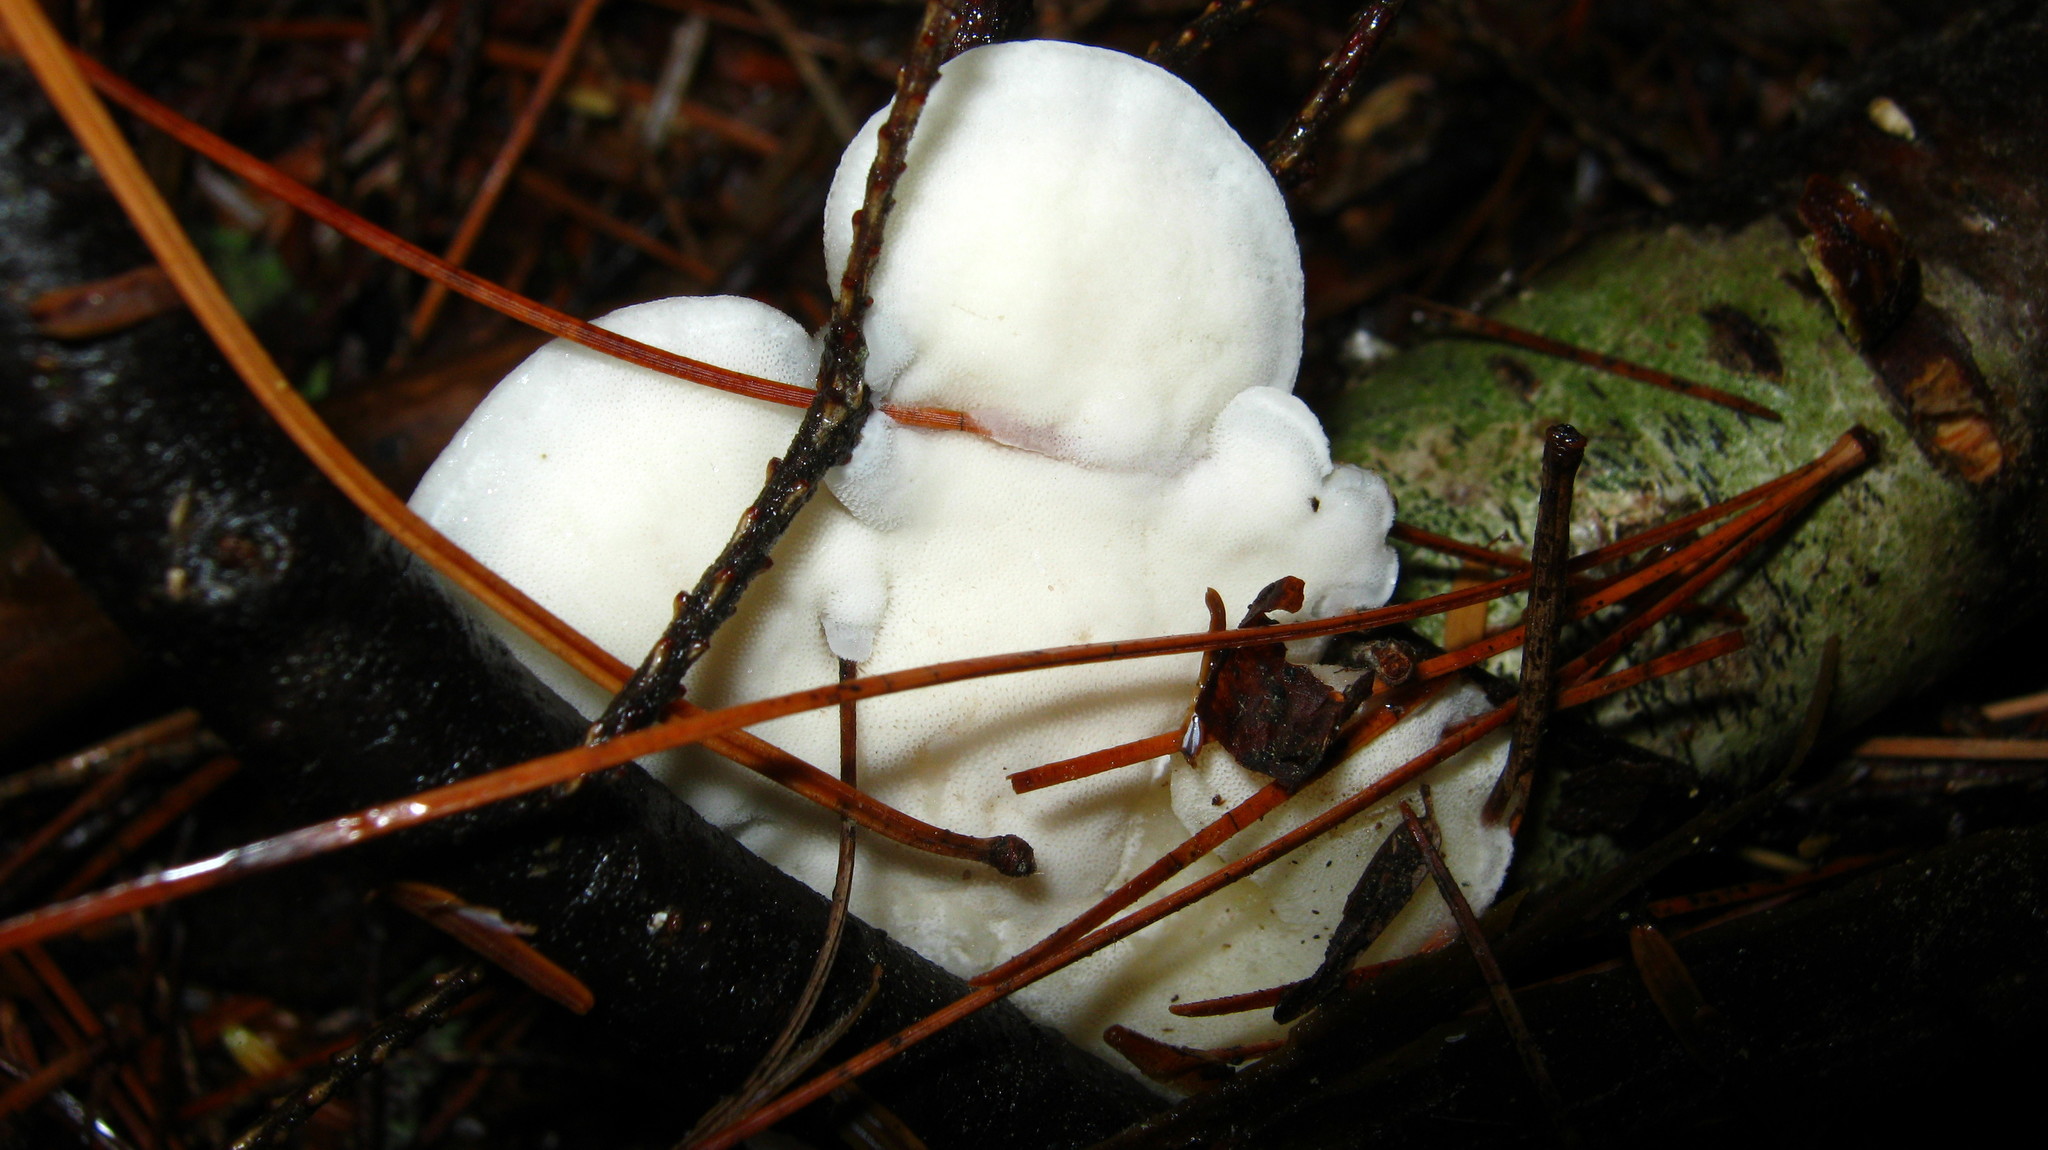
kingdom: Fungi
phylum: Basidiomycota
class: Agaricomycetes
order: Polyporales
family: Incrustoporiaceae
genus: Tyromyces
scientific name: Tyromyces chioneus
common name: White cheese polypore
